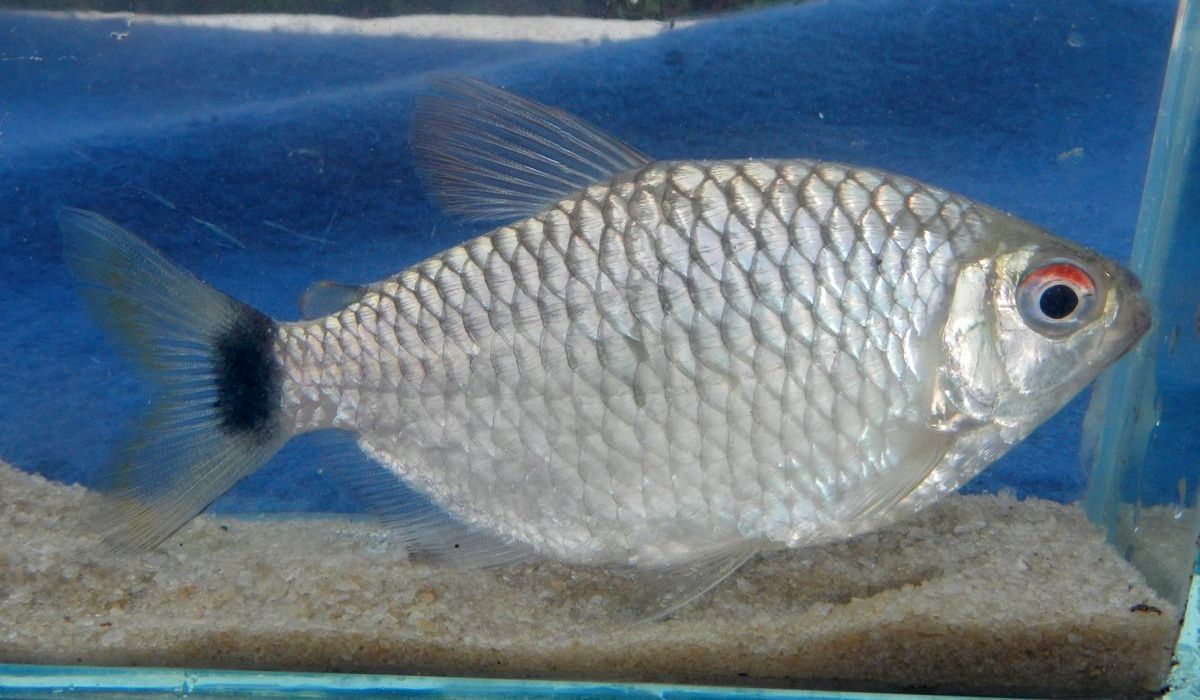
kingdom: Animalia
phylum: Chordata
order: Characiformes
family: Characidae
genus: Moenkhausia
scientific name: Moenkhausia oligolepis
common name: Glass tetra
